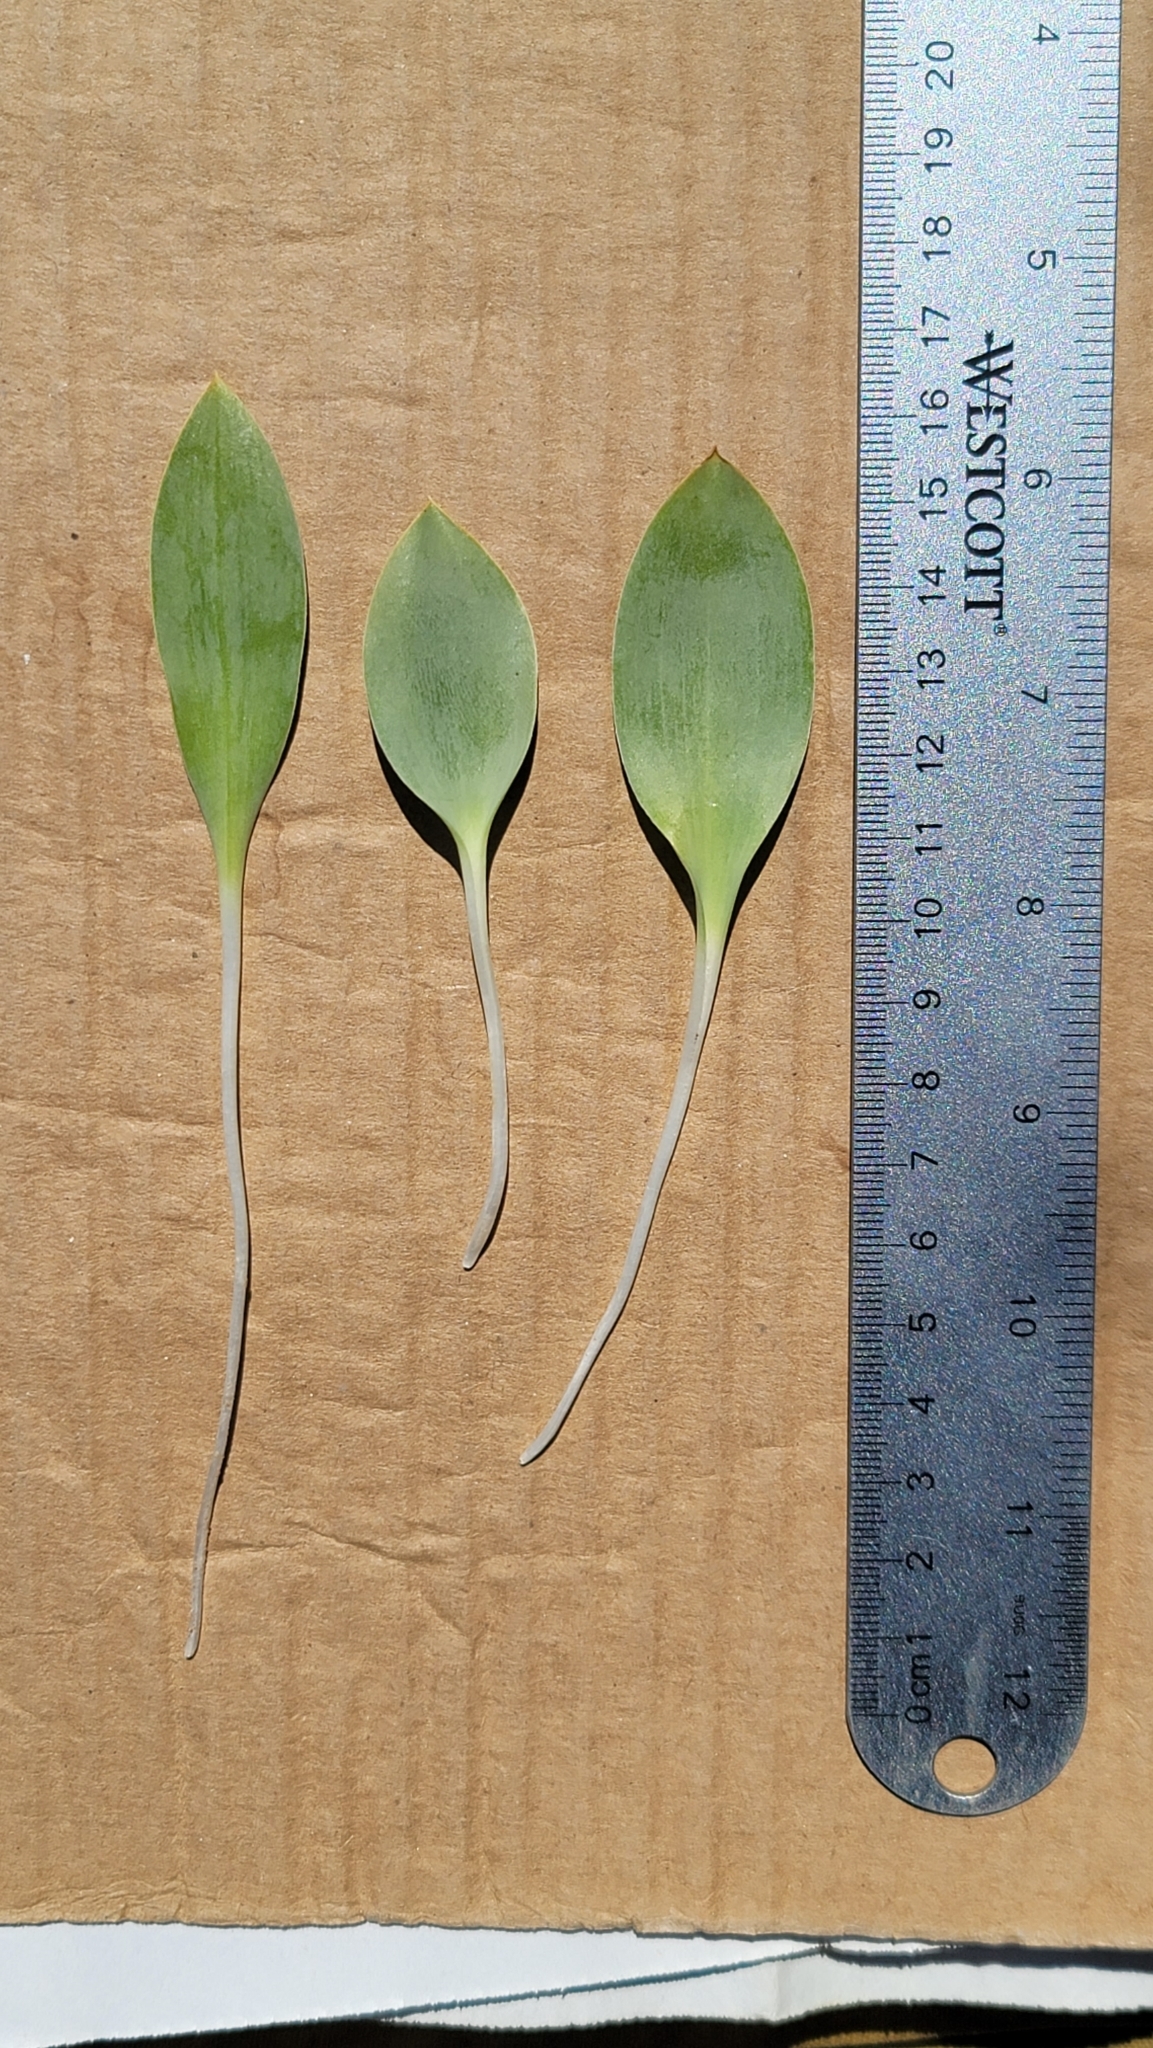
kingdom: Plantae
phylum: Tracheophyta
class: Liliopsida
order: Liliales
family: Liliaceae
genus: Fritillaria
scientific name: Fritillaria agrestis
